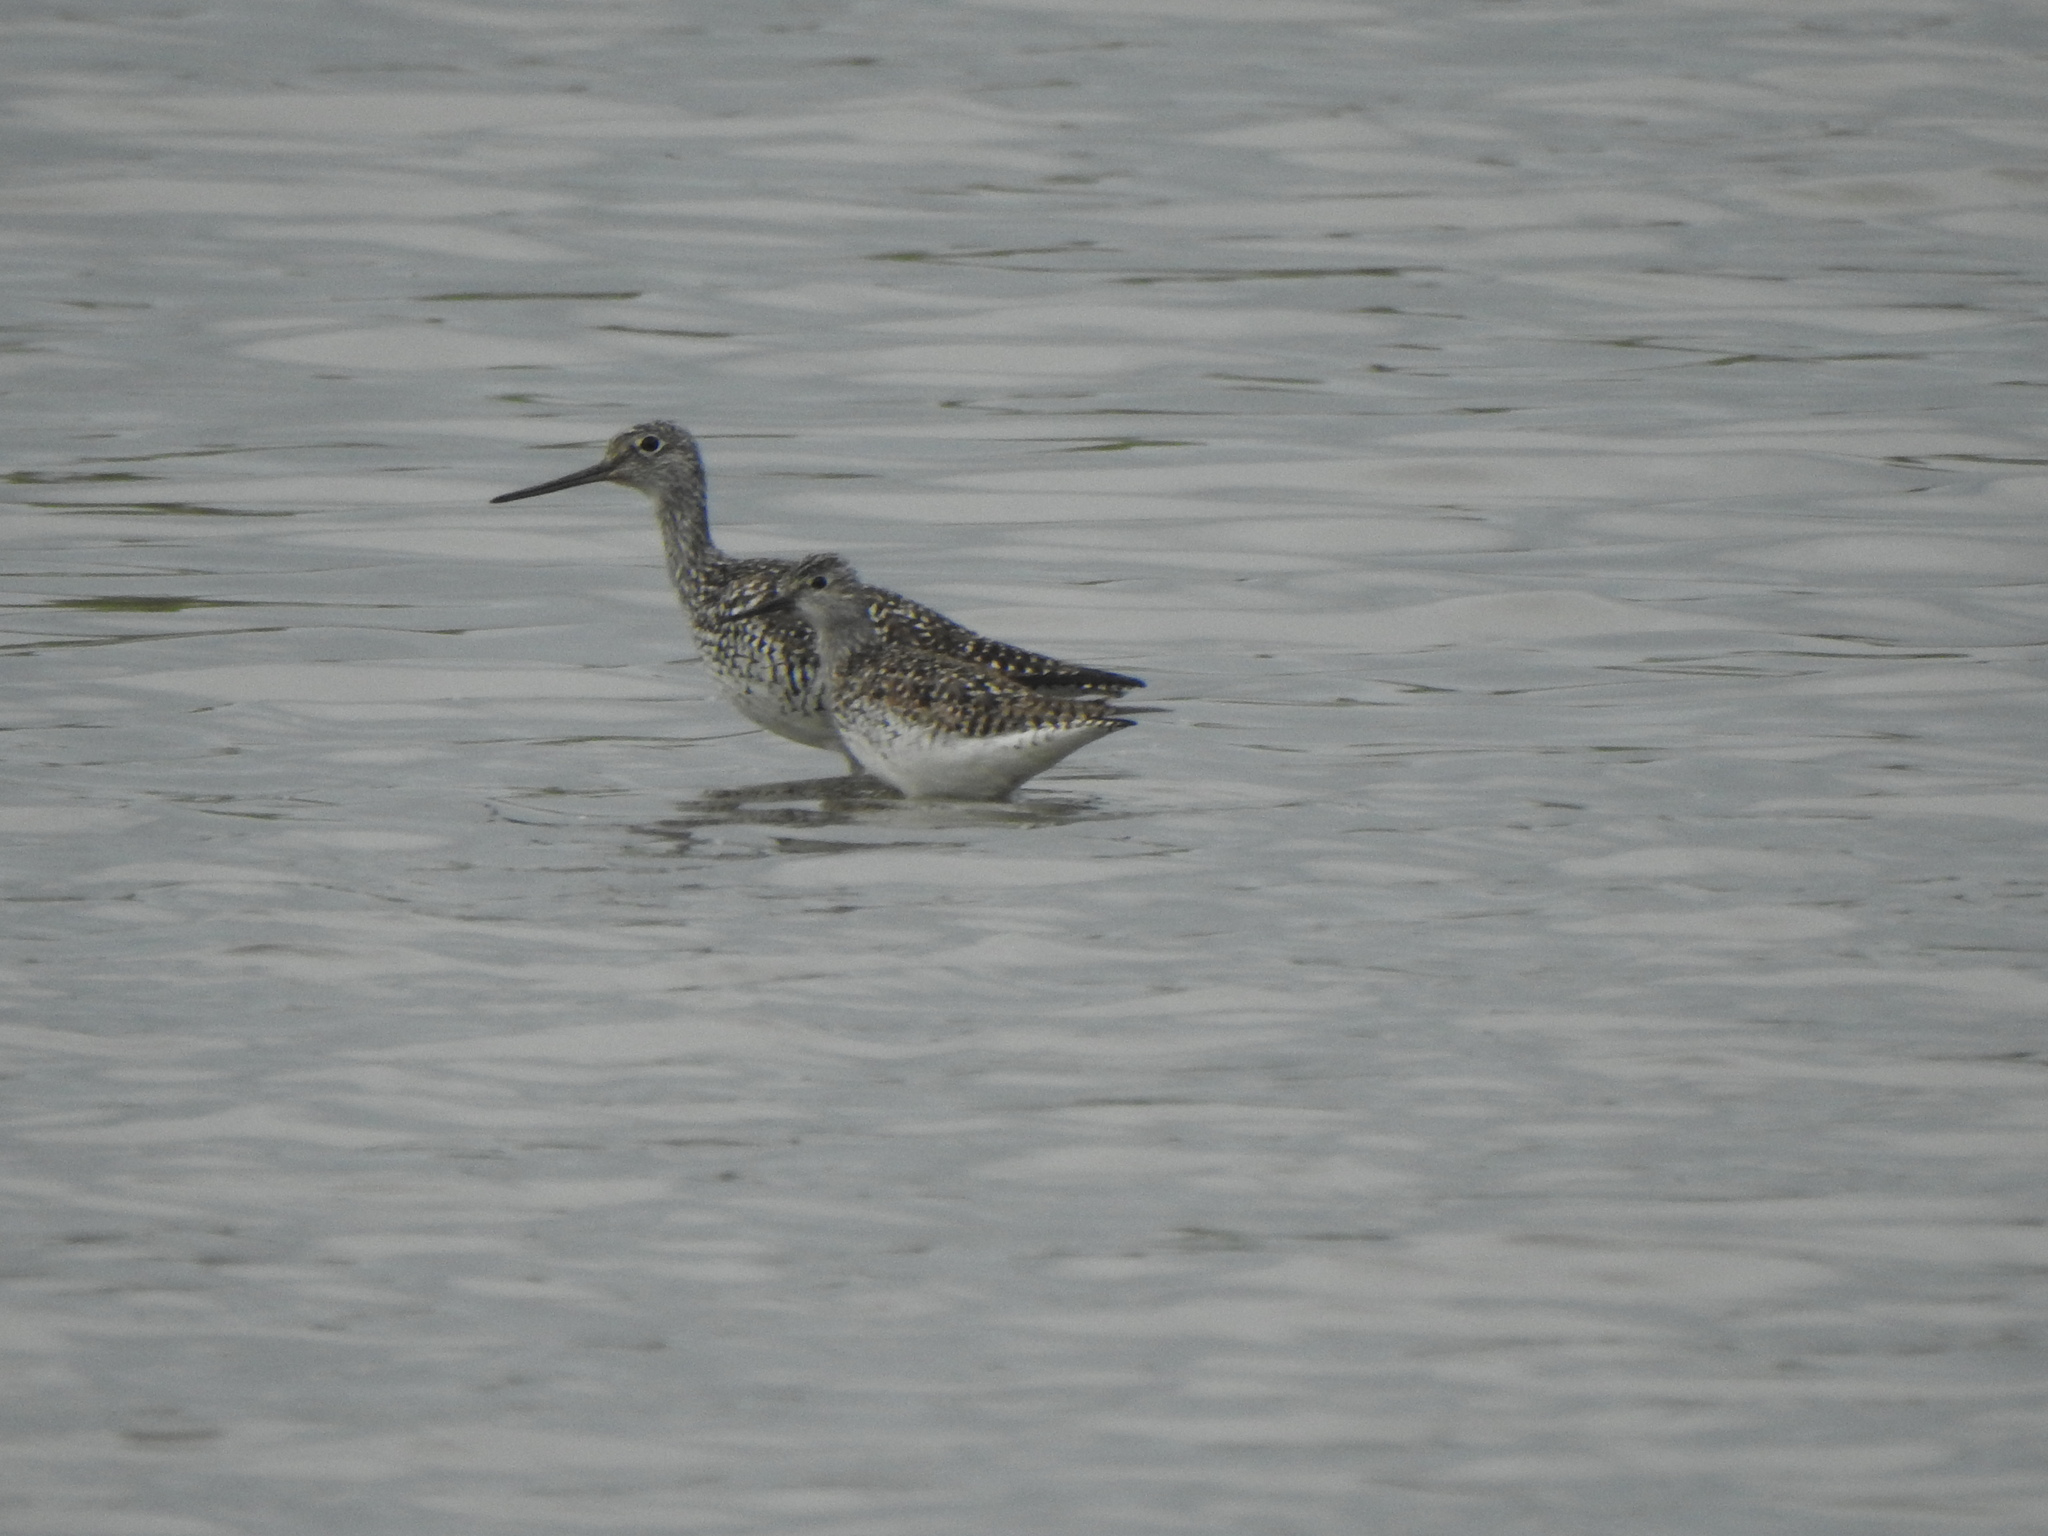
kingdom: Animalia
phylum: Chordata
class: Aves
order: Charadriiformes
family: Scolopacidae
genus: Tringa
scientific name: Tringa melanoleuca
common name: Greater yellowlegs
